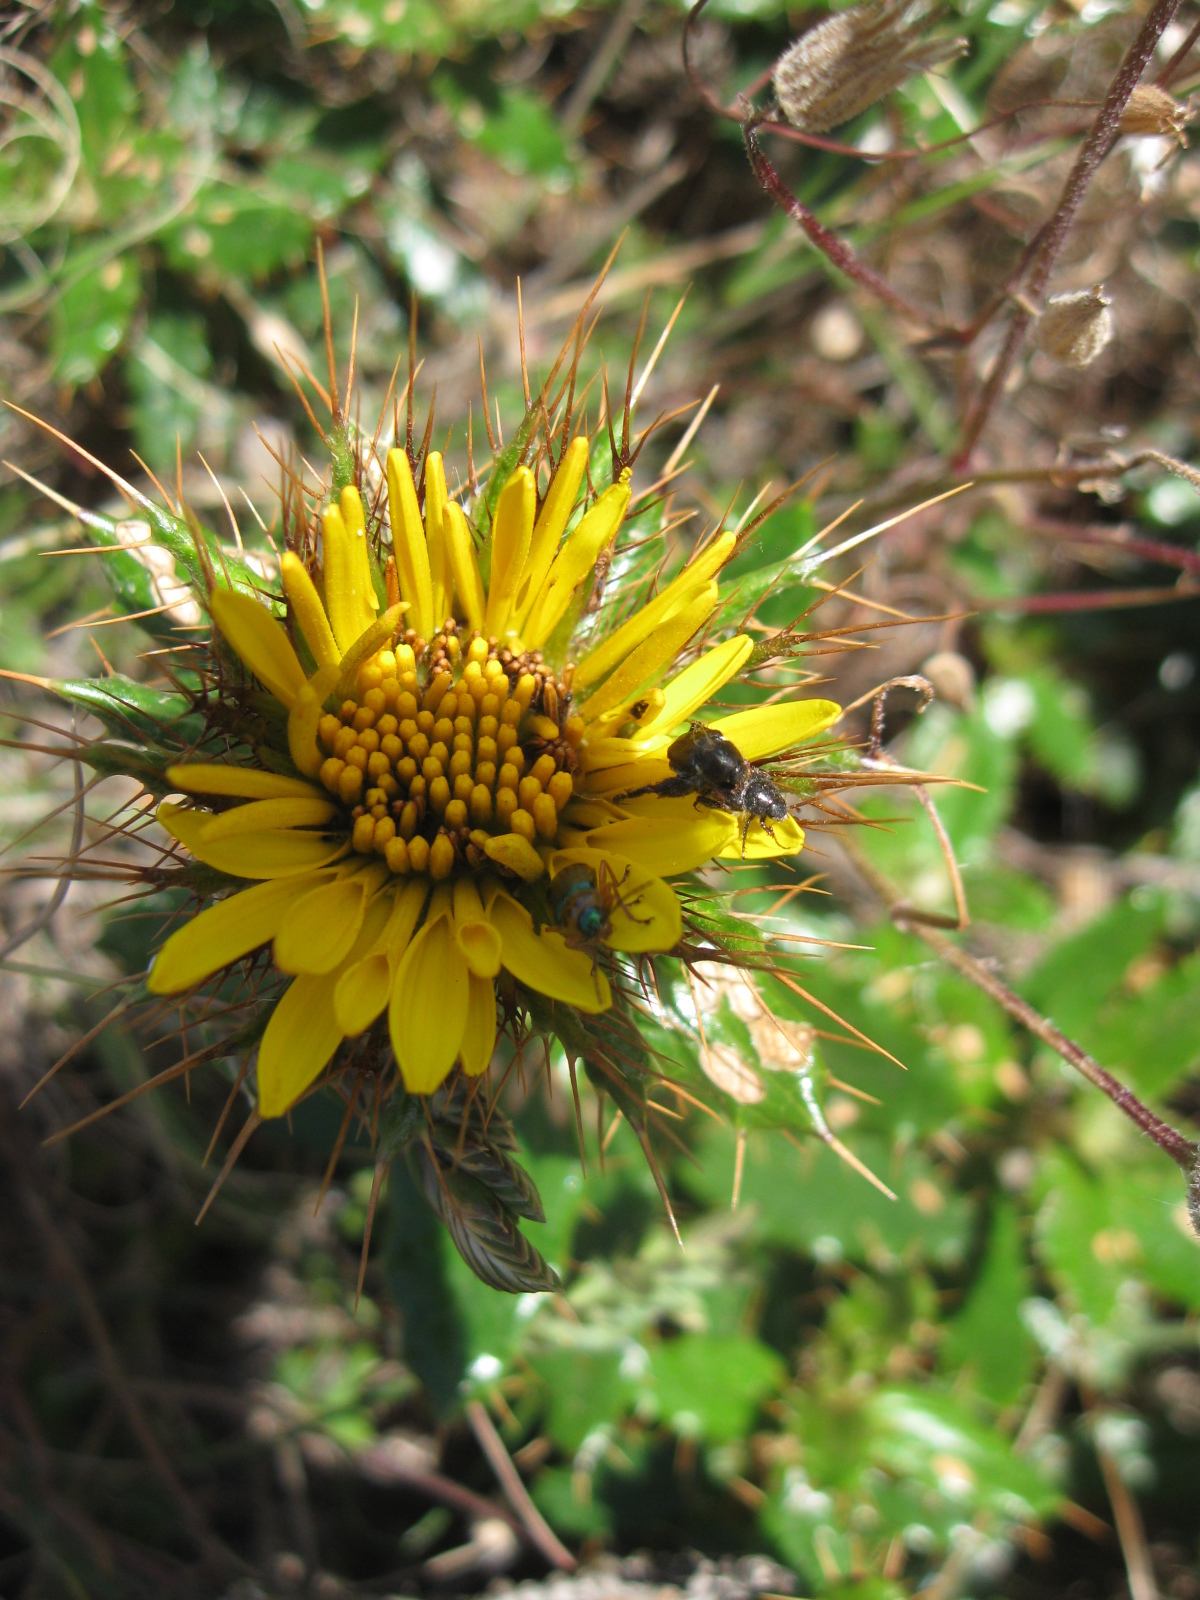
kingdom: Plantae
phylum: Tracheophyta
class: Magnoliopsida
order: Asterales
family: Asteraceae
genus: Berkheya
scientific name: Berkheya barbata
